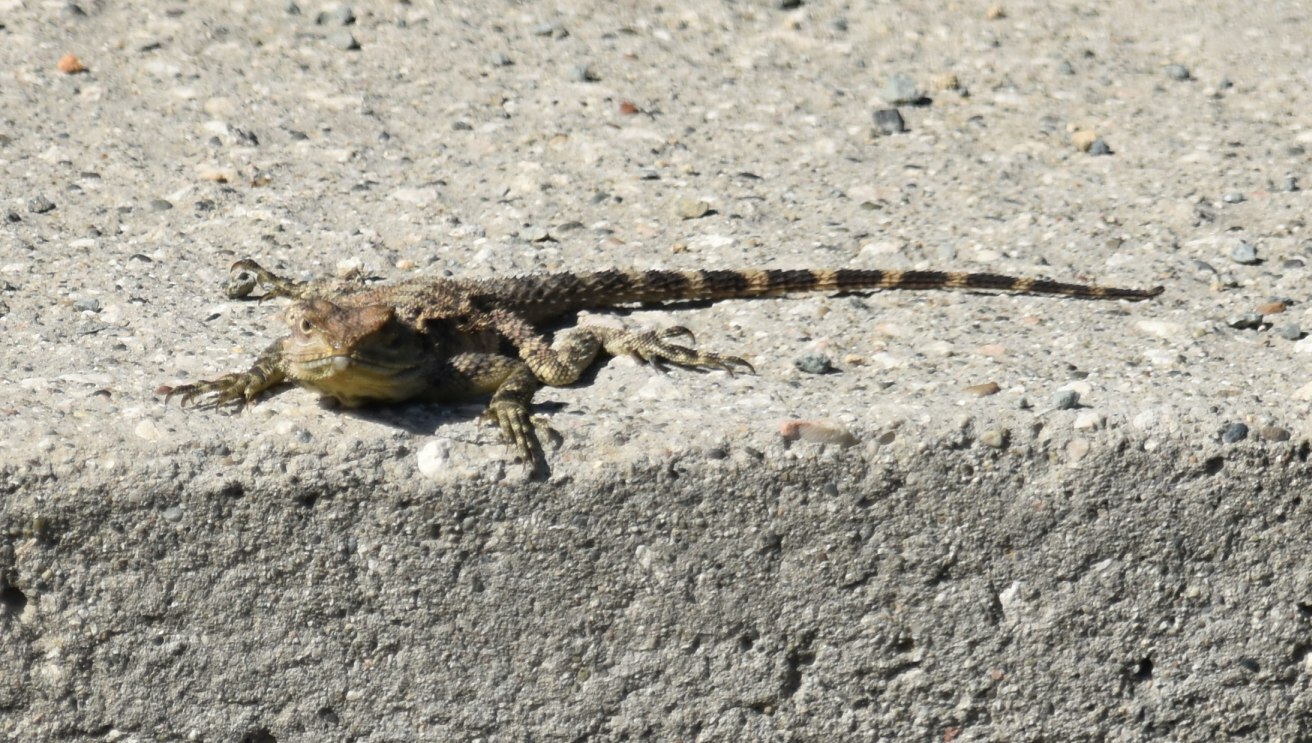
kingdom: Animalia
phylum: Chordata
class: Squamata
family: Agamidae
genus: Laudakia
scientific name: Laudakia
